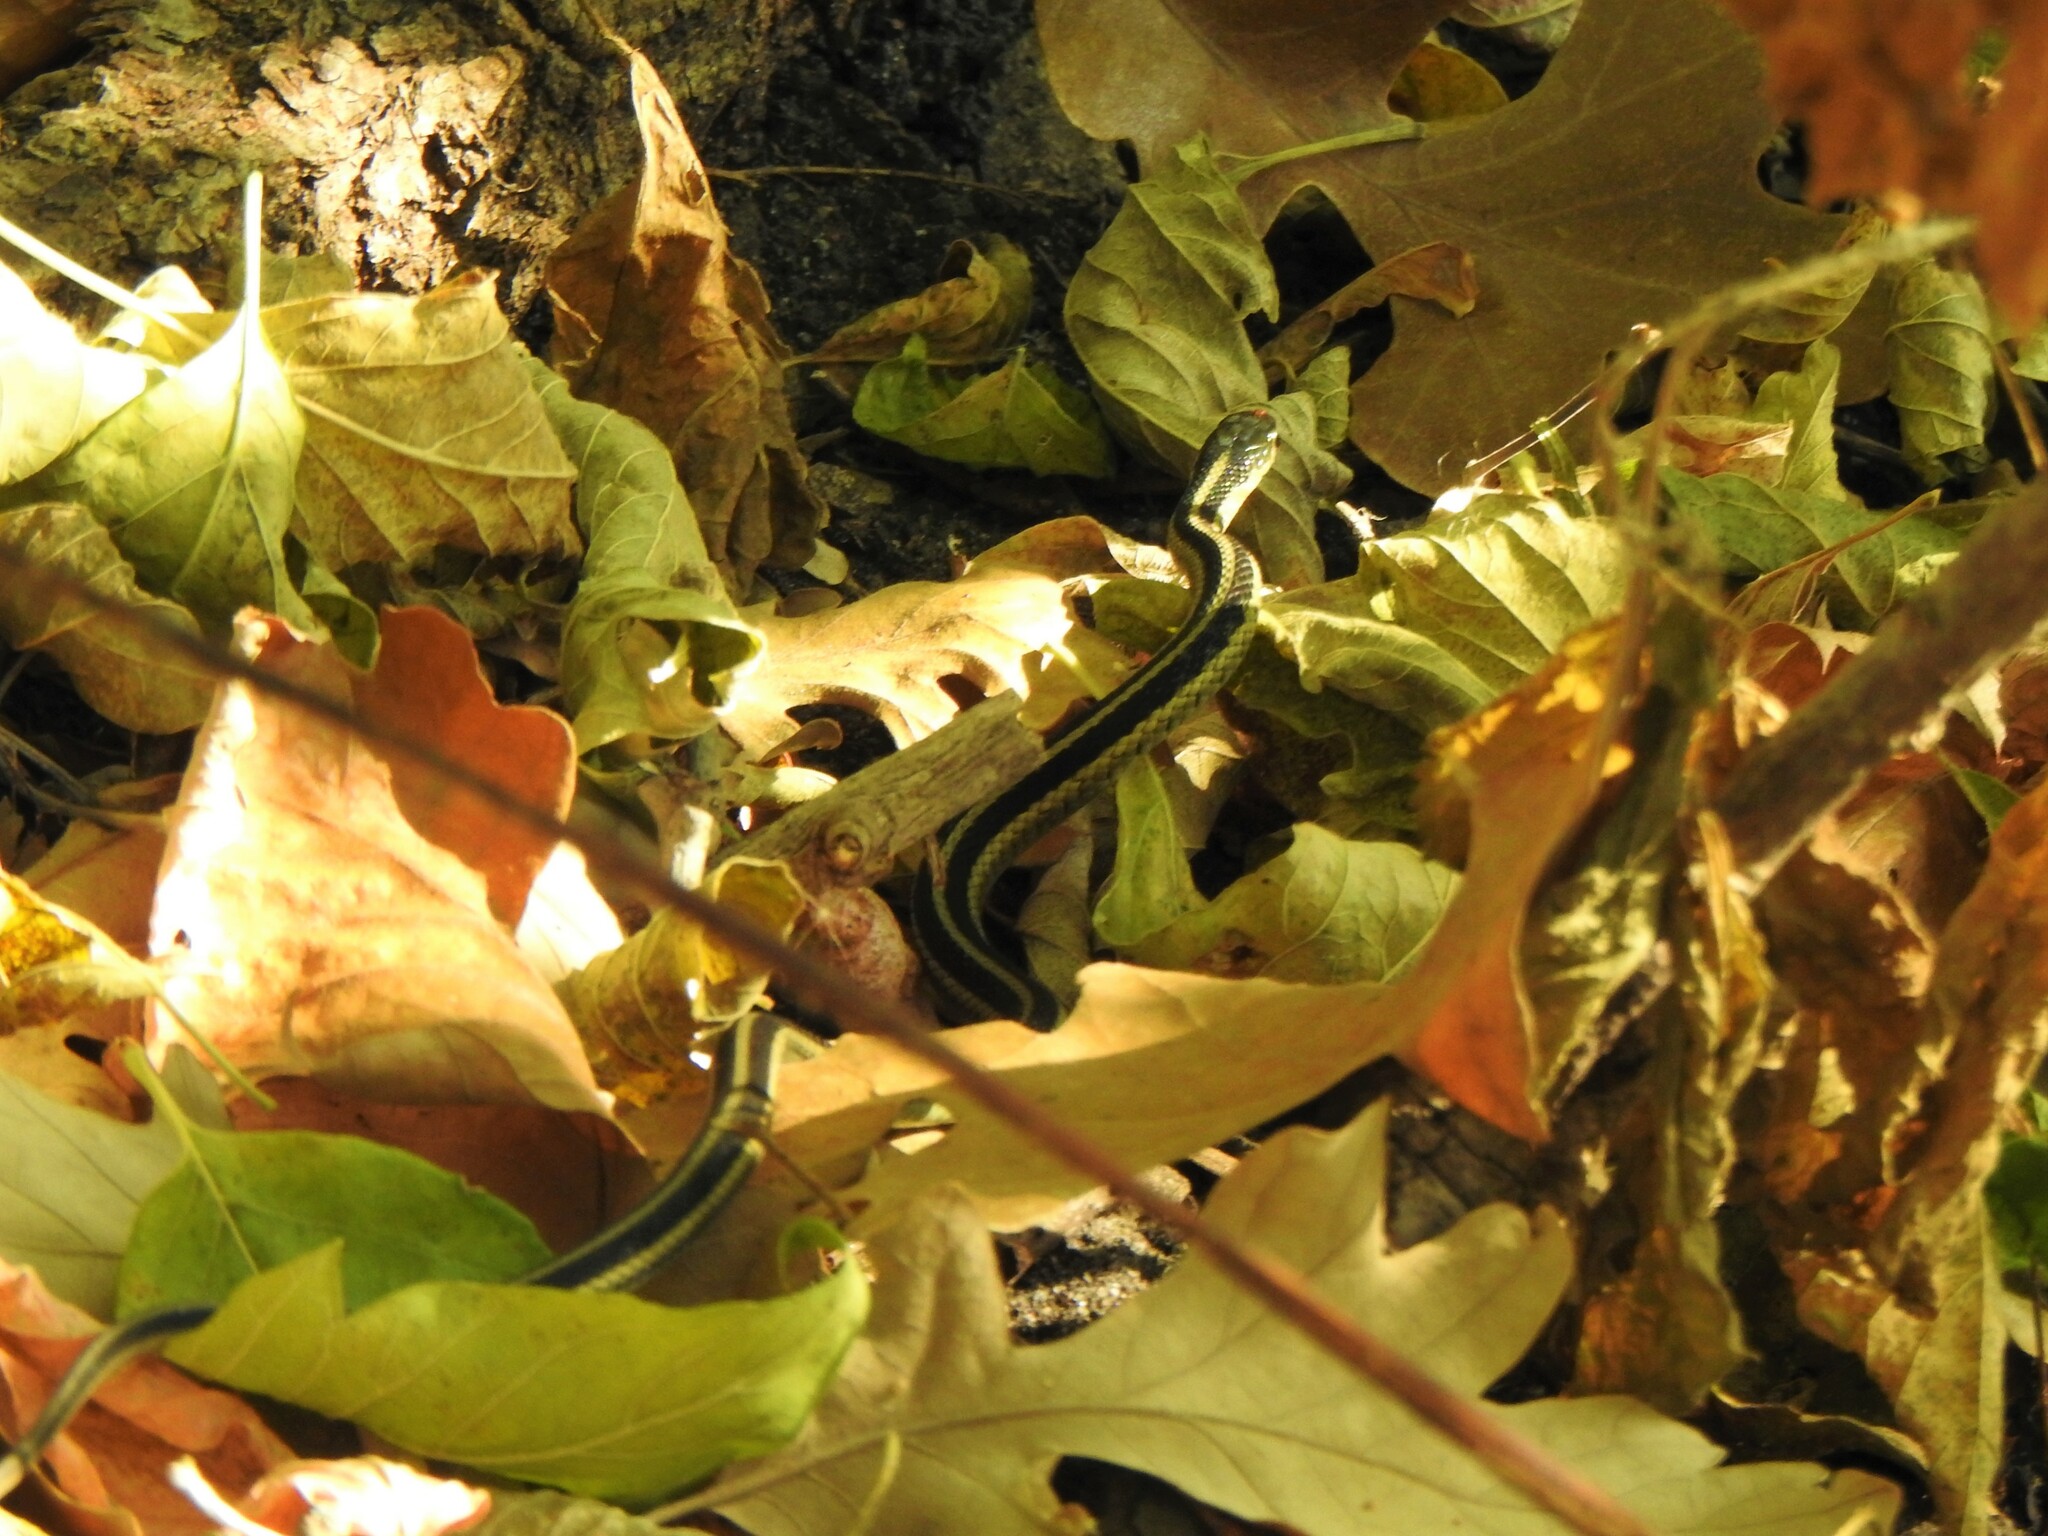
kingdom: Animalia
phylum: Chordata
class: Squamata
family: Colubridae
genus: Thamnophis
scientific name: Thamnophis sirtalis
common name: Common garter snake
